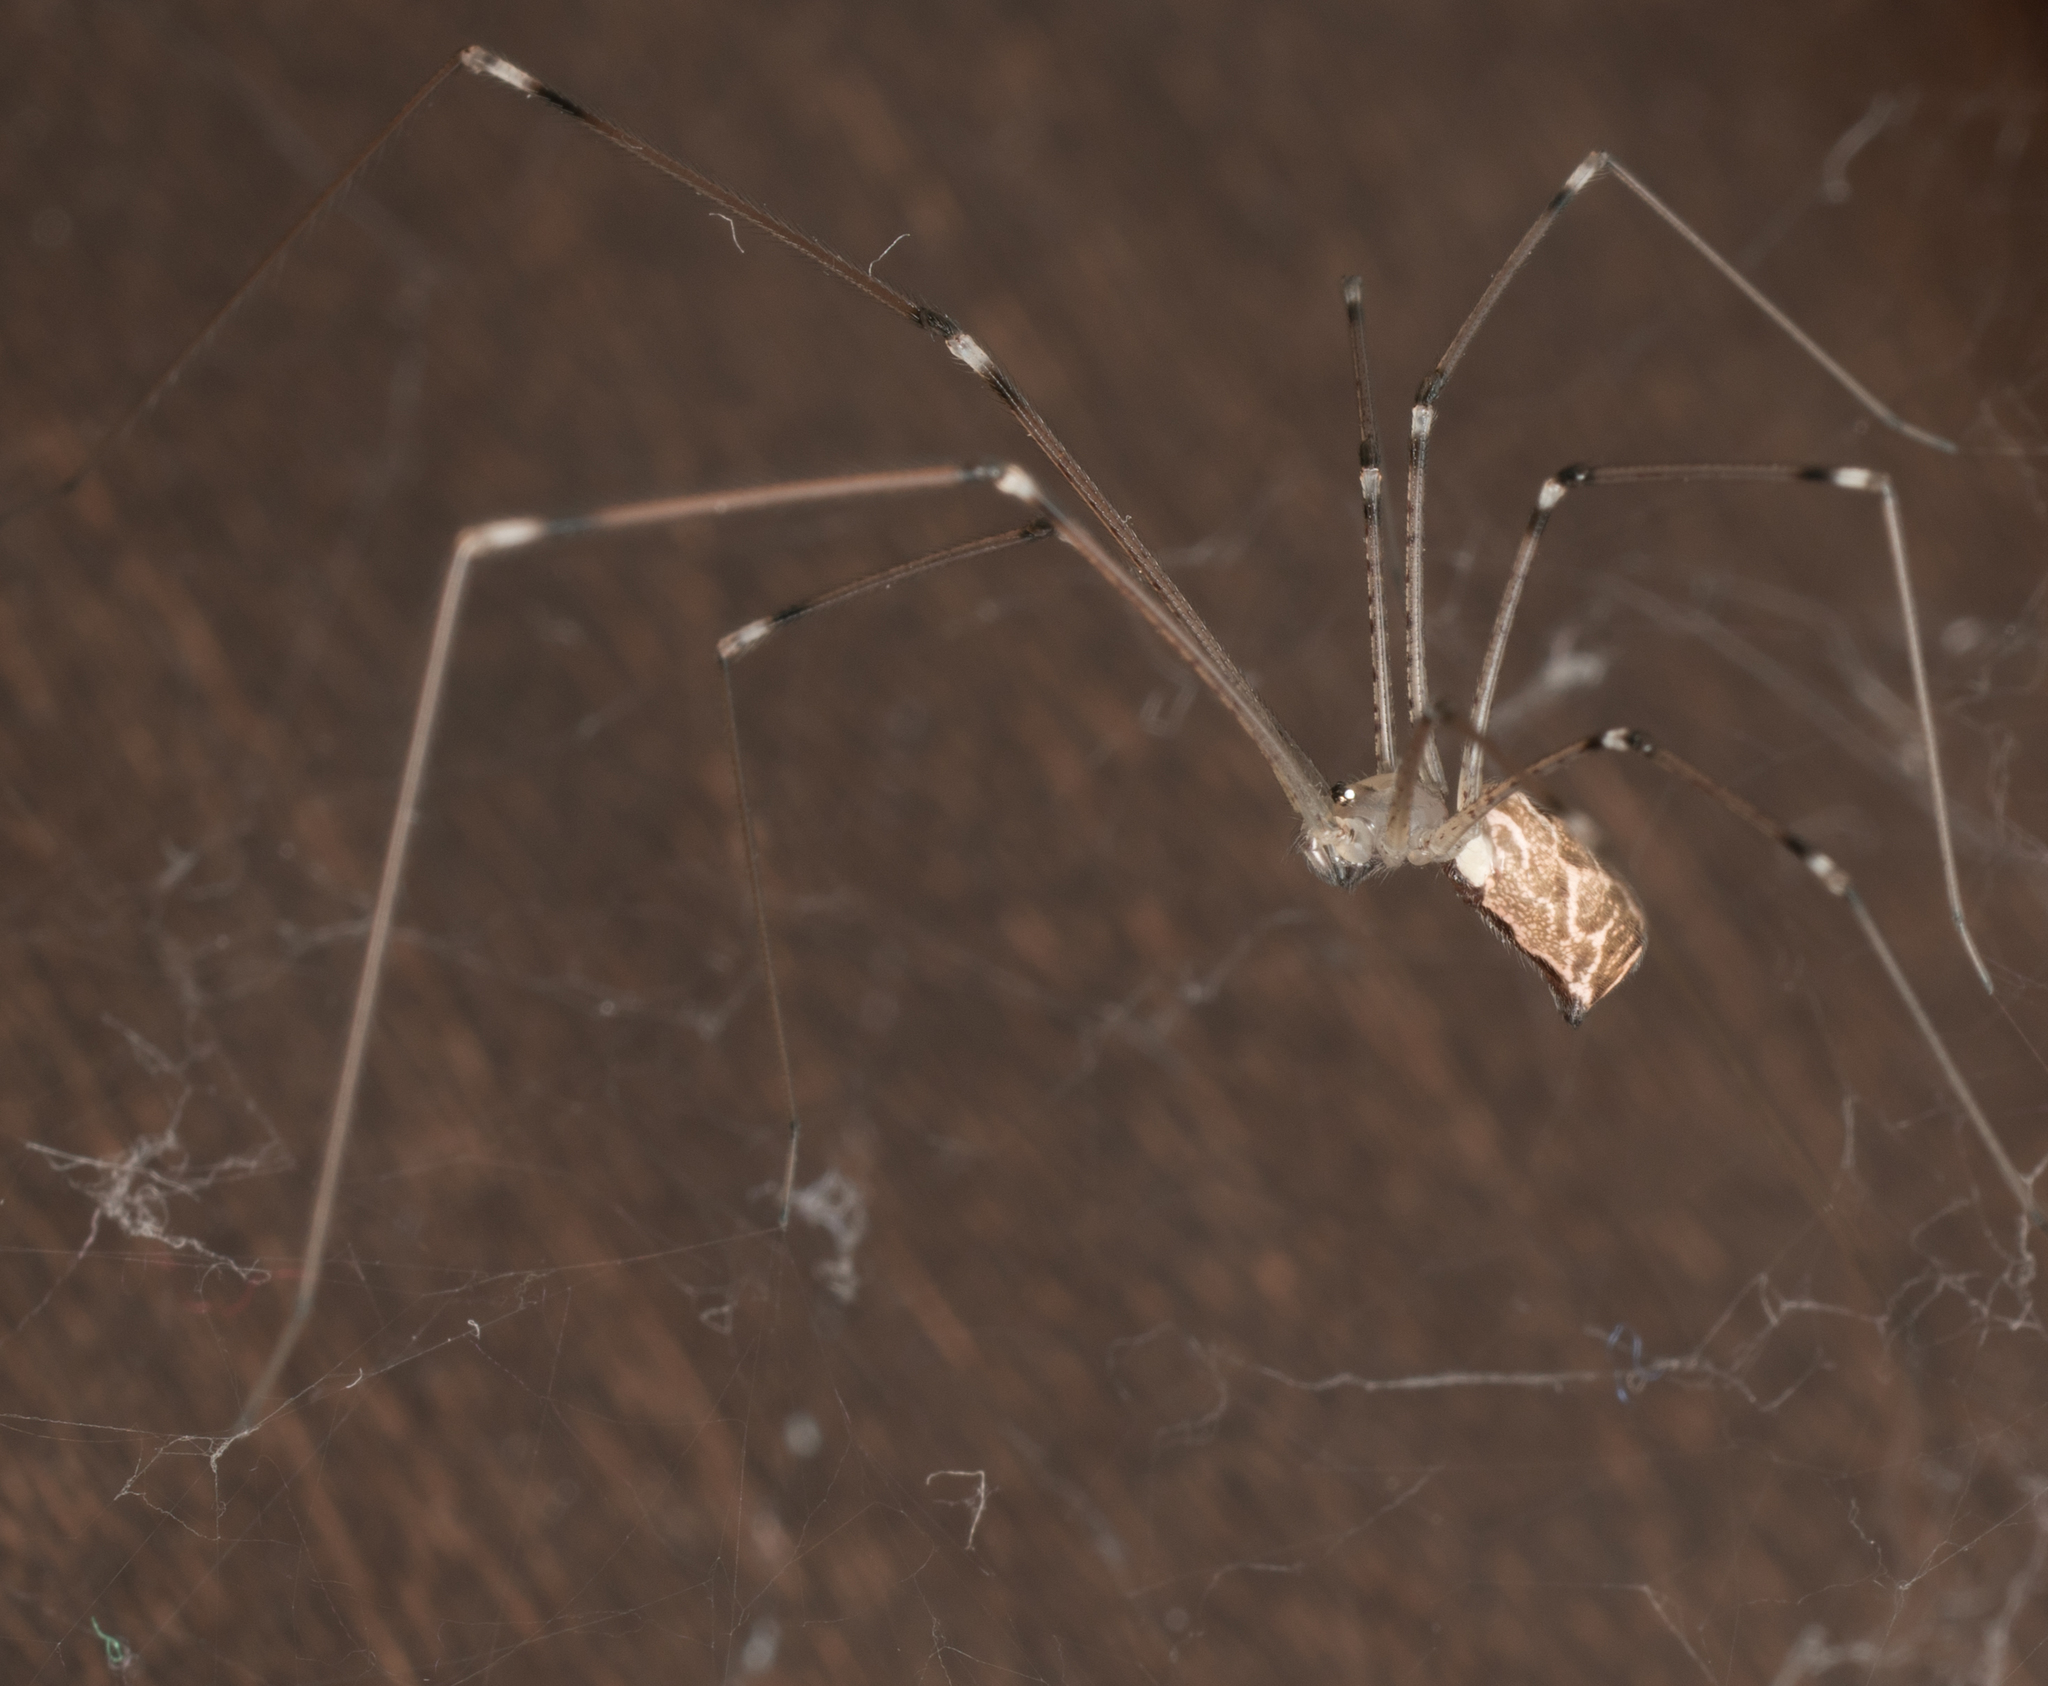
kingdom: Animalia
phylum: Arthropoda
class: Arachnida
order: Araneae
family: Pholcidae
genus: Holocnemus
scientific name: Holocnemus pluchei
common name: Marbled cellar spider
